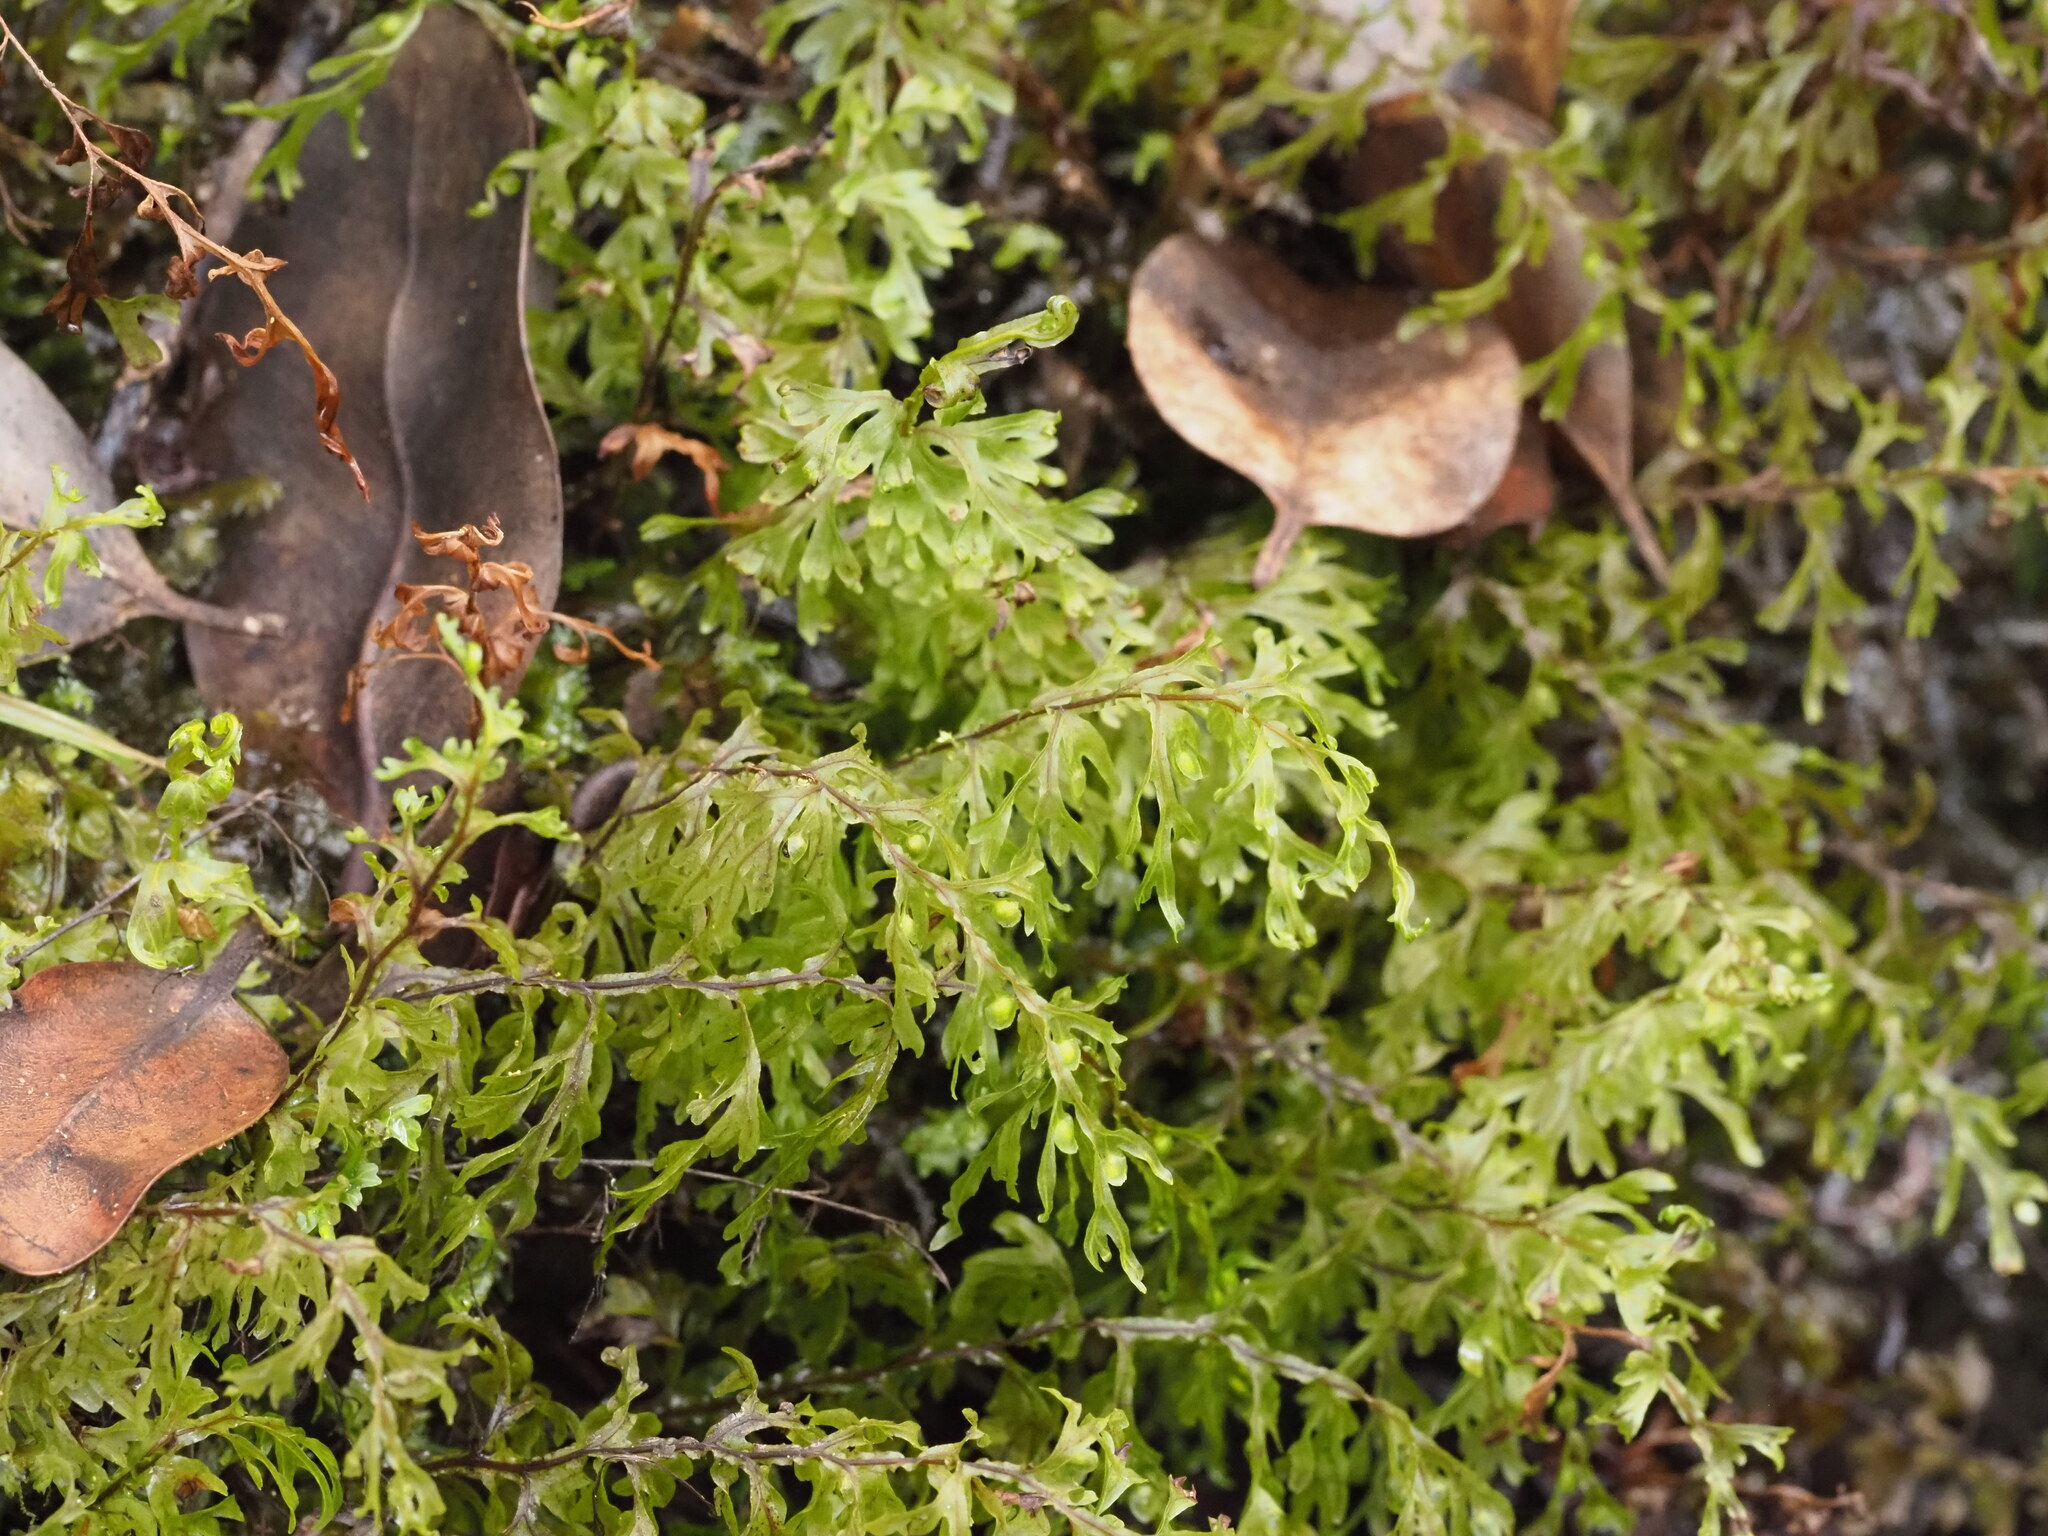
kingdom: Plantae
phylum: Tracheophyta
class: Polypodiopsida
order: Hymenophyllales
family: Hymenophyllaceae
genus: Hymenophyllum
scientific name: Hymenophyllum recurvum
